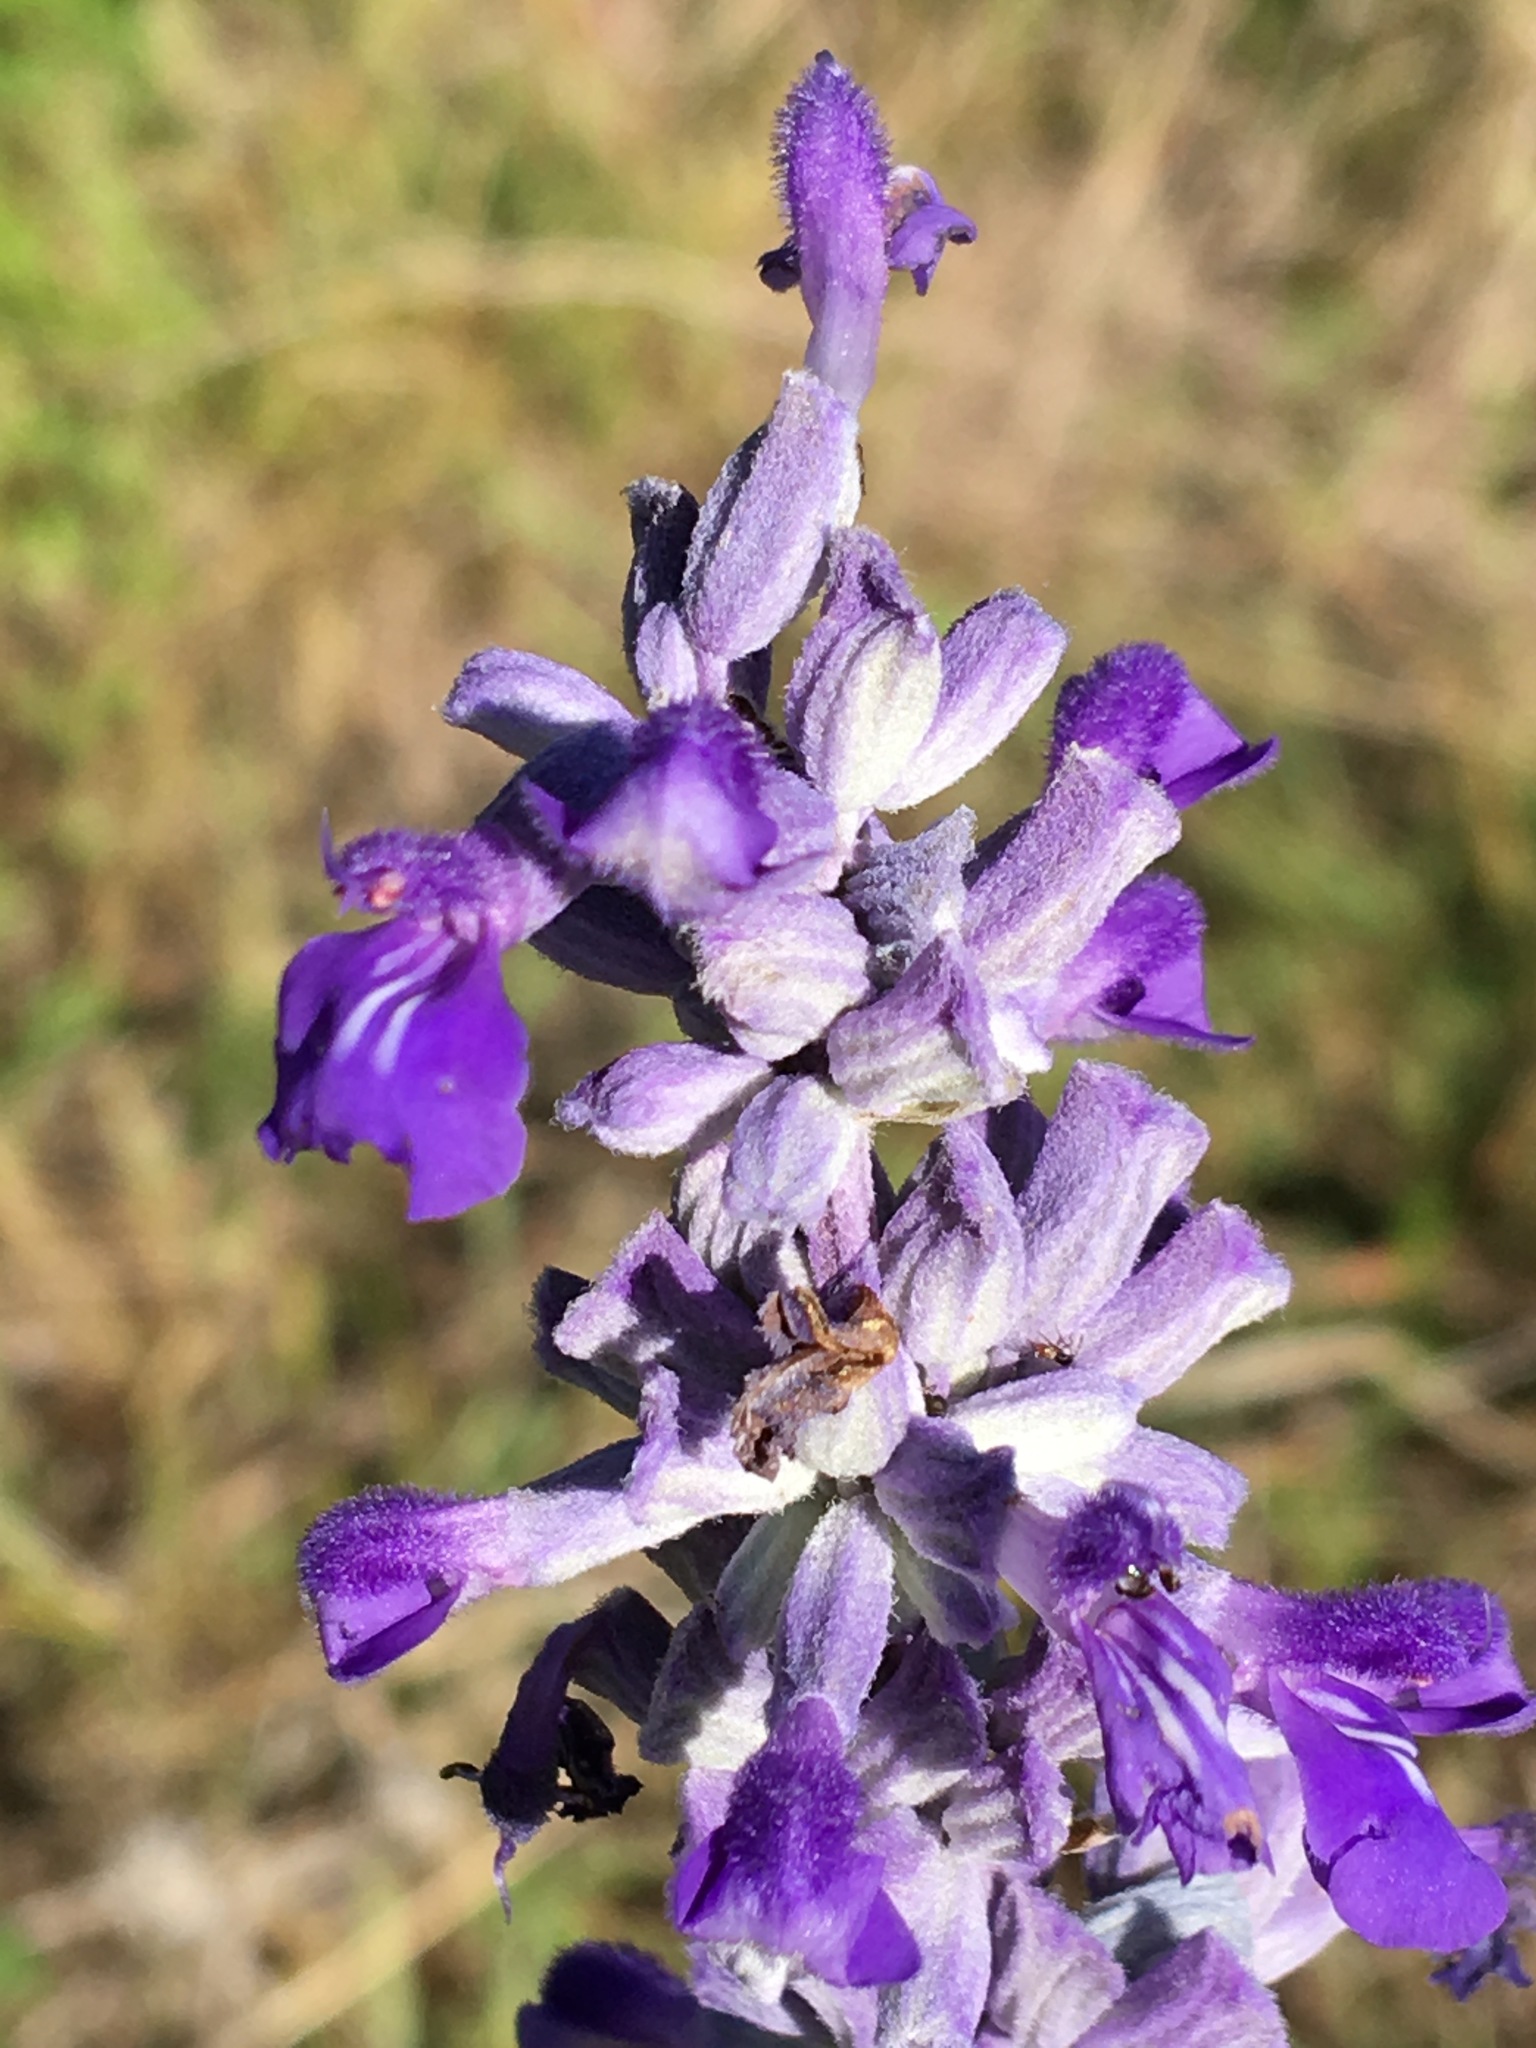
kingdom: Plantae
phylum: Tracheophyta
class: Magnoliopsida
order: Lamiales
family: Lamiaceae
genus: Salvia
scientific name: Salvia farinacea
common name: Mealy sage
